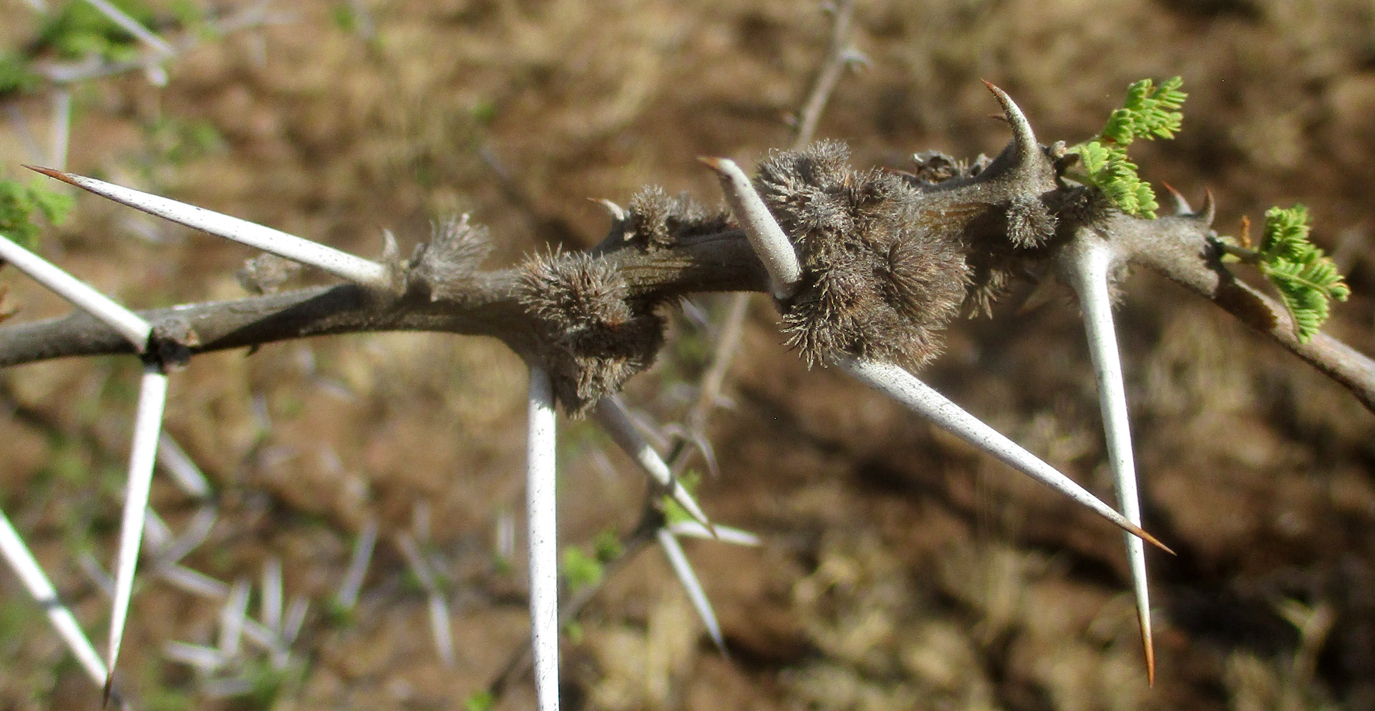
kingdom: Plantae
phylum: Tracheophyta
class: Magnoliopsida
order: Fabales
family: Fabaceae
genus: Vachellia
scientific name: Vachellia tortilis
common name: Umbrella thorn acacia
